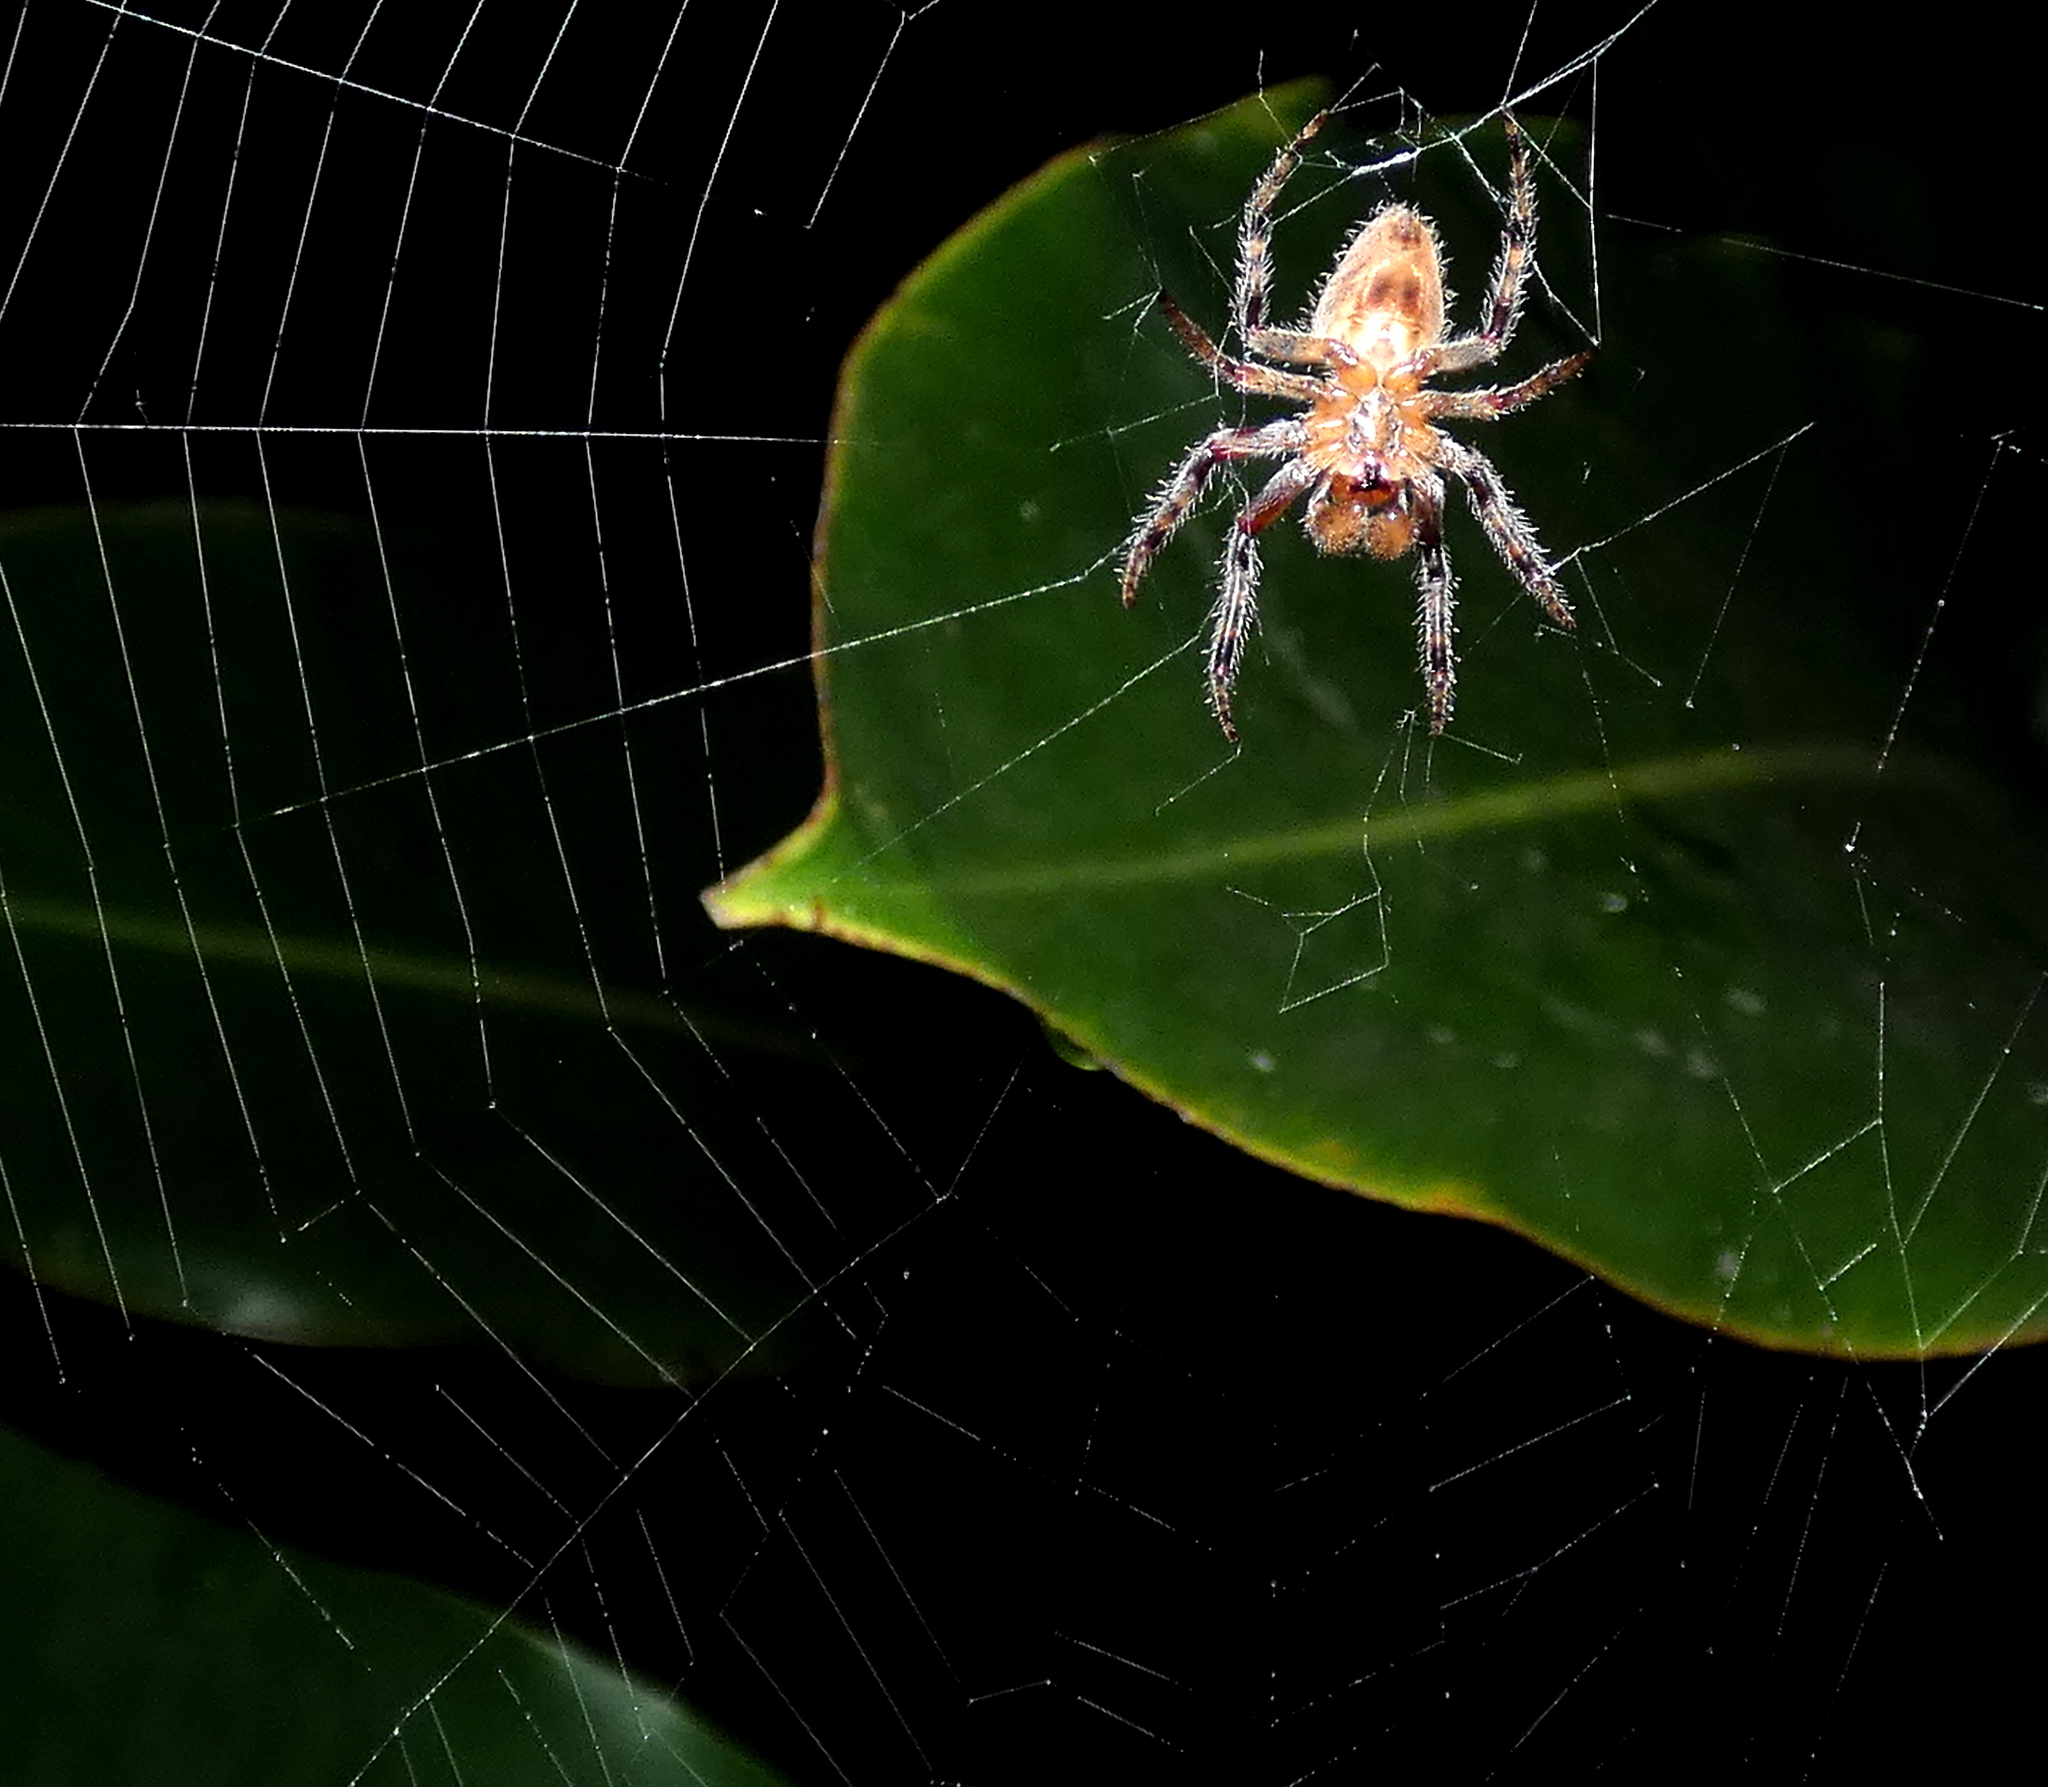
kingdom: Animalia
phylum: Arthropoda
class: Arachnida
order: Araneae
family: Araneidae
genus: Eriophora
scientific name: Eriophora edax
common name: Orb weavers
